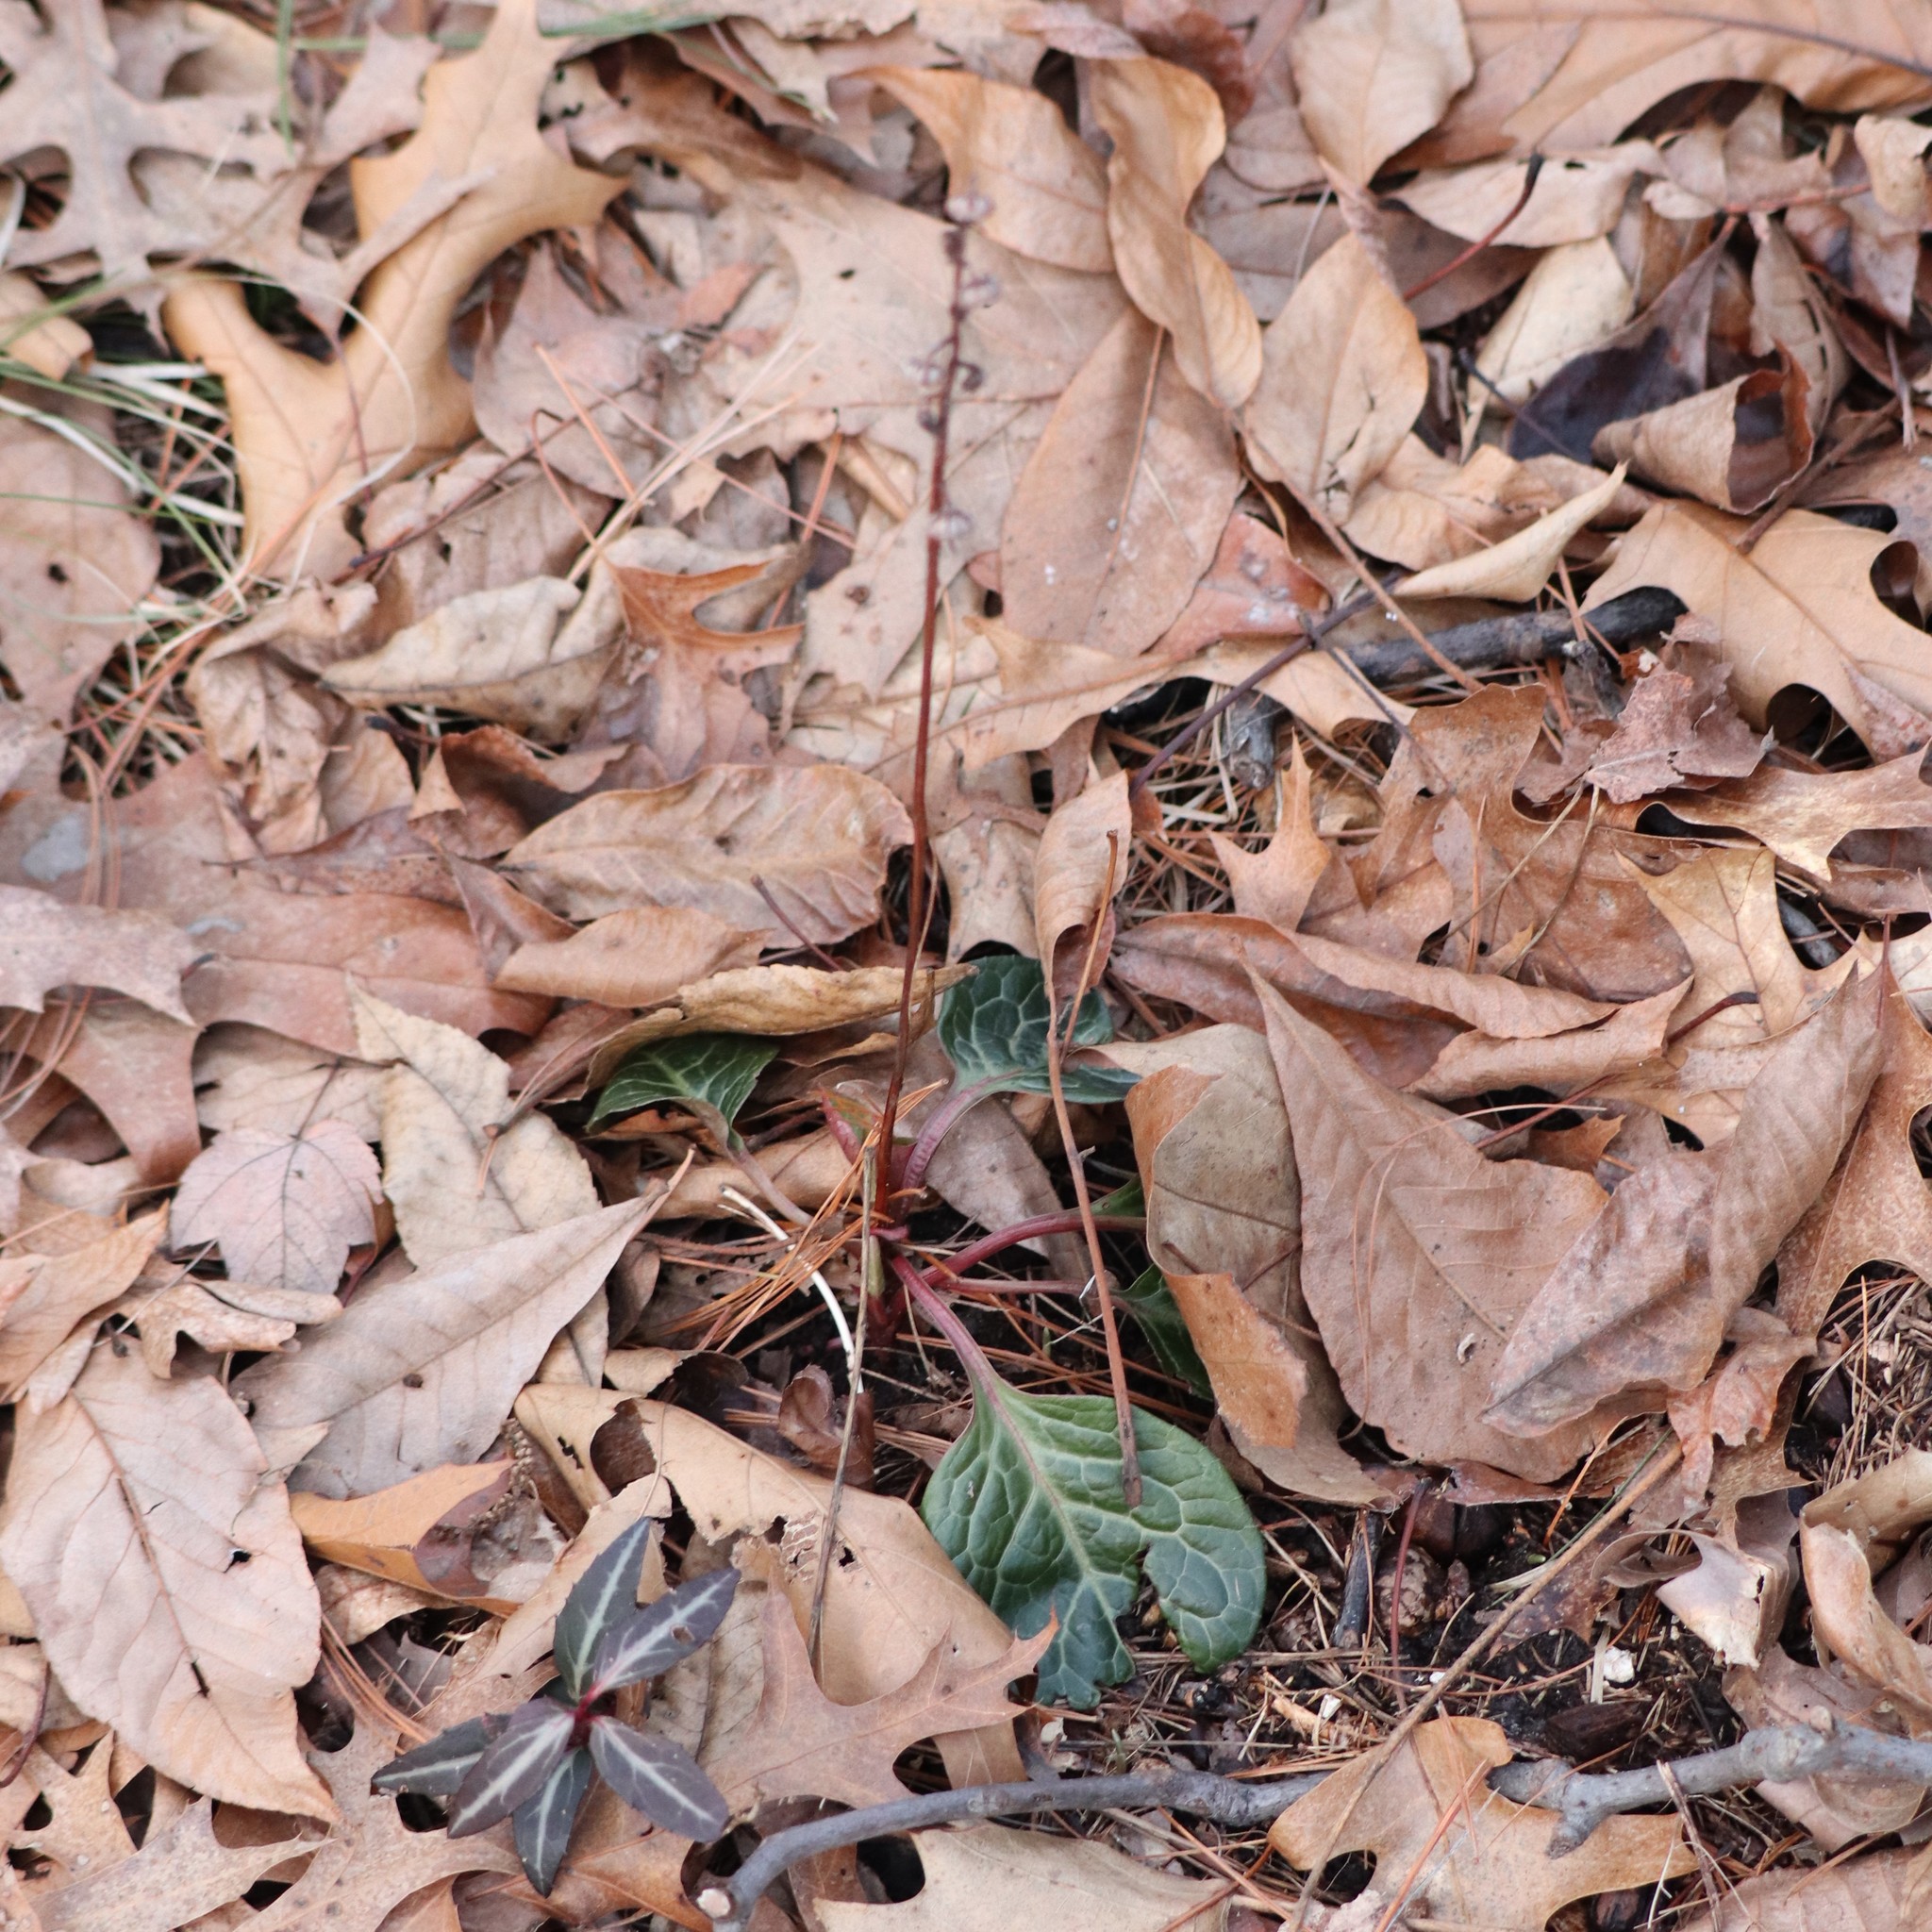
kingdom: Plantae
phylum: Tracheophyta
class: Magnoliopsida
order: Ericales
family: Ericaceae
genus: Pyrola
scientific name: Pyrola americana
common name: American wintergreen
